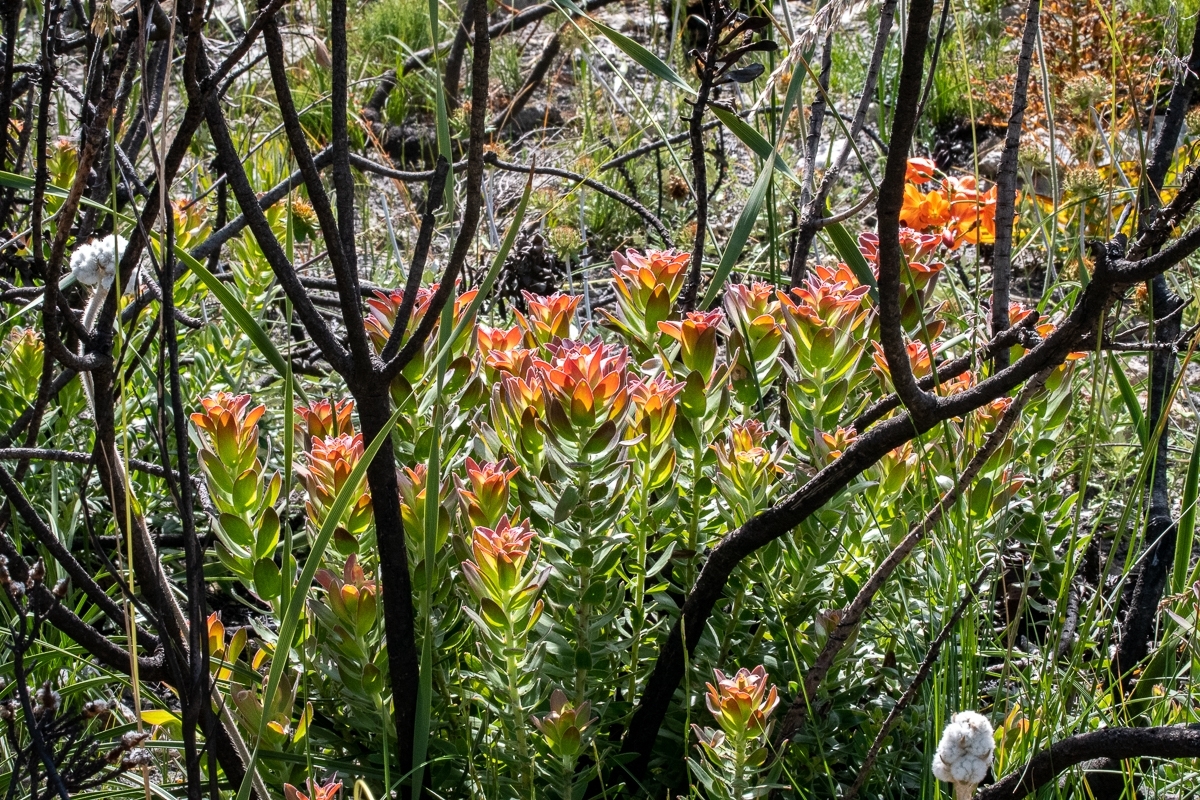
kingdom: Plantae
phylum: Tracheophyta
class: Magnoliopsida
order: Proteales
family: Proteaceae
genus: Mimetes
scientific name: Mimetes cucullatus
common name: Common pagoda
